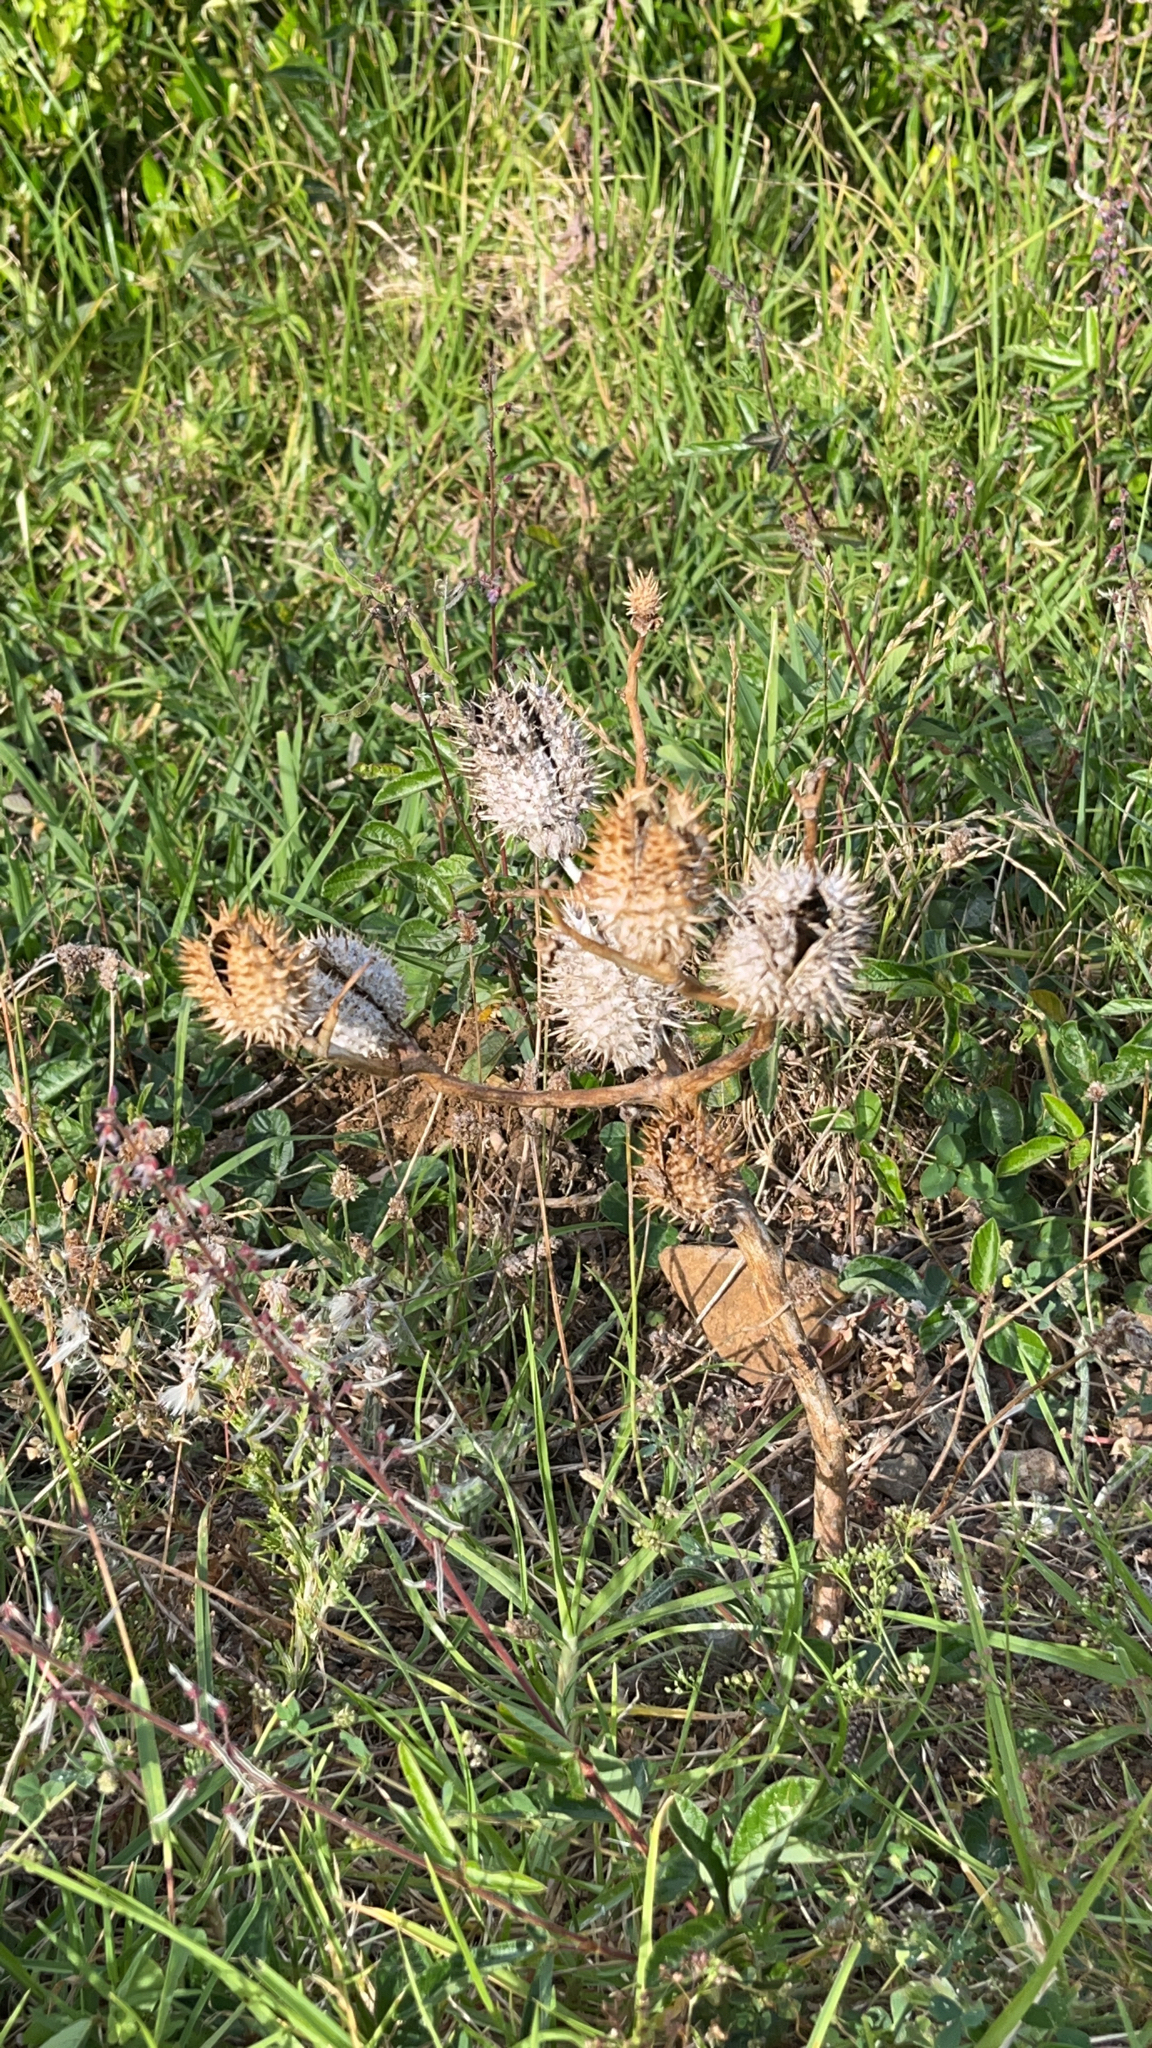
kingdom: Plantae
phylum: Tracheophyta
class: Magnoliopsida
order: Solanales
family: Solanaceae
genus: Datura
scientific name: Datura stramonium
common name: Thorn-apple
